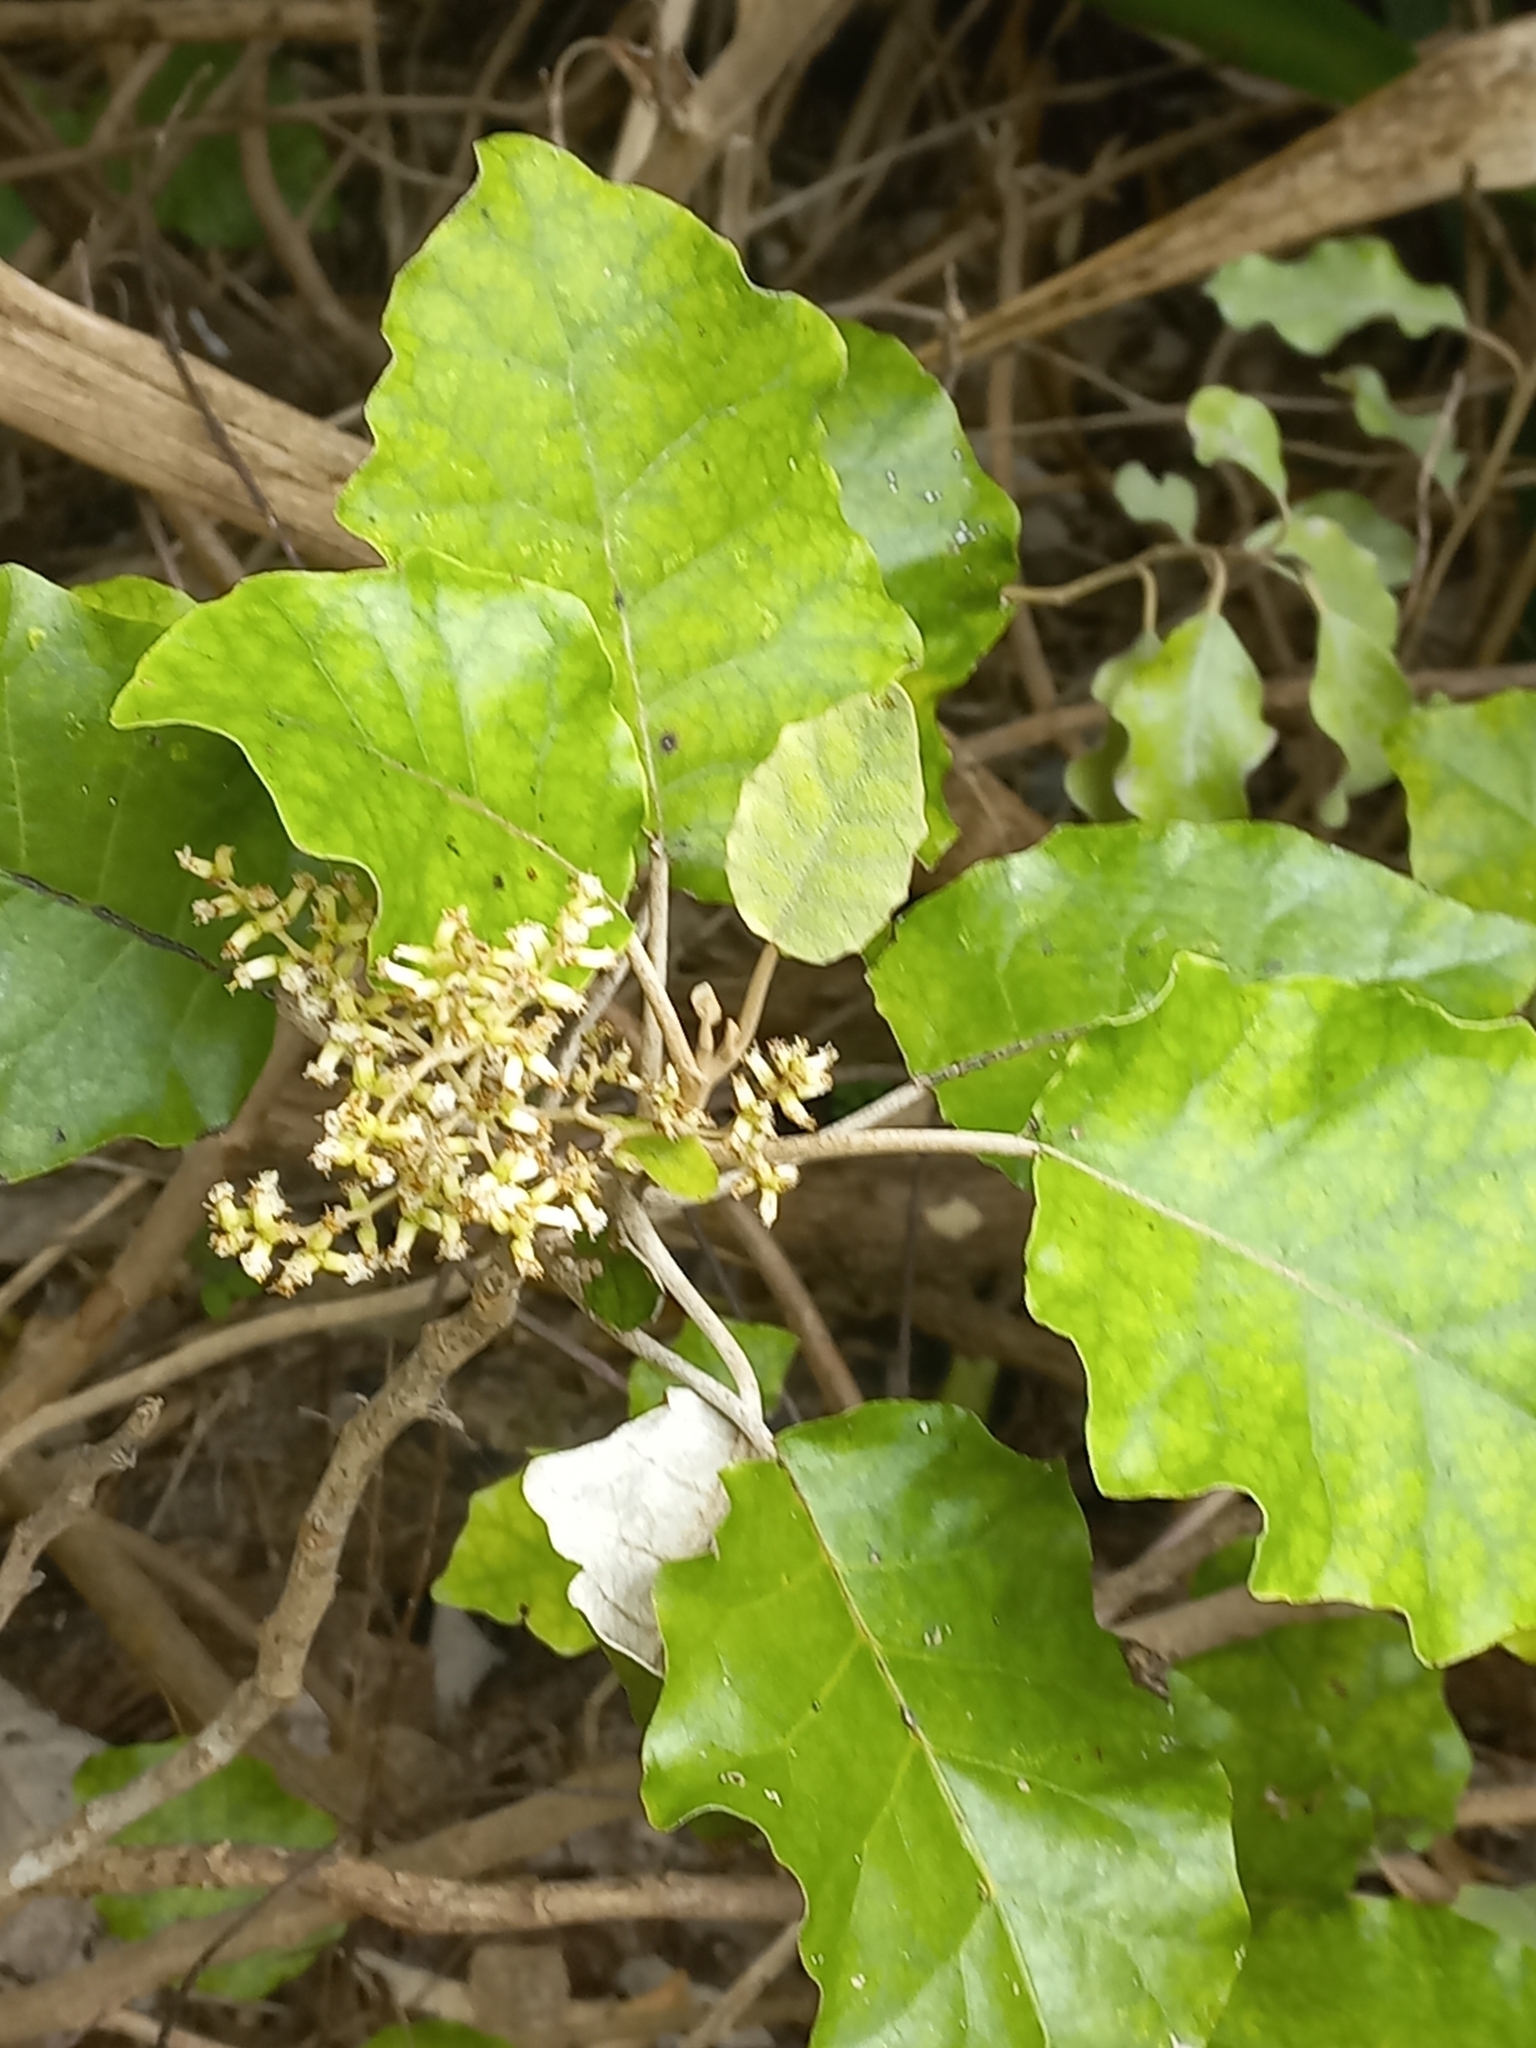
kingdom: Plantae
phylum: Tracheophyta
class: Magnoliopsida
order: Asterales
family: Asteraceae
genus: Brachyglottis
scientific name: Brachyglottis repanda
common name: Hedge ragwort
